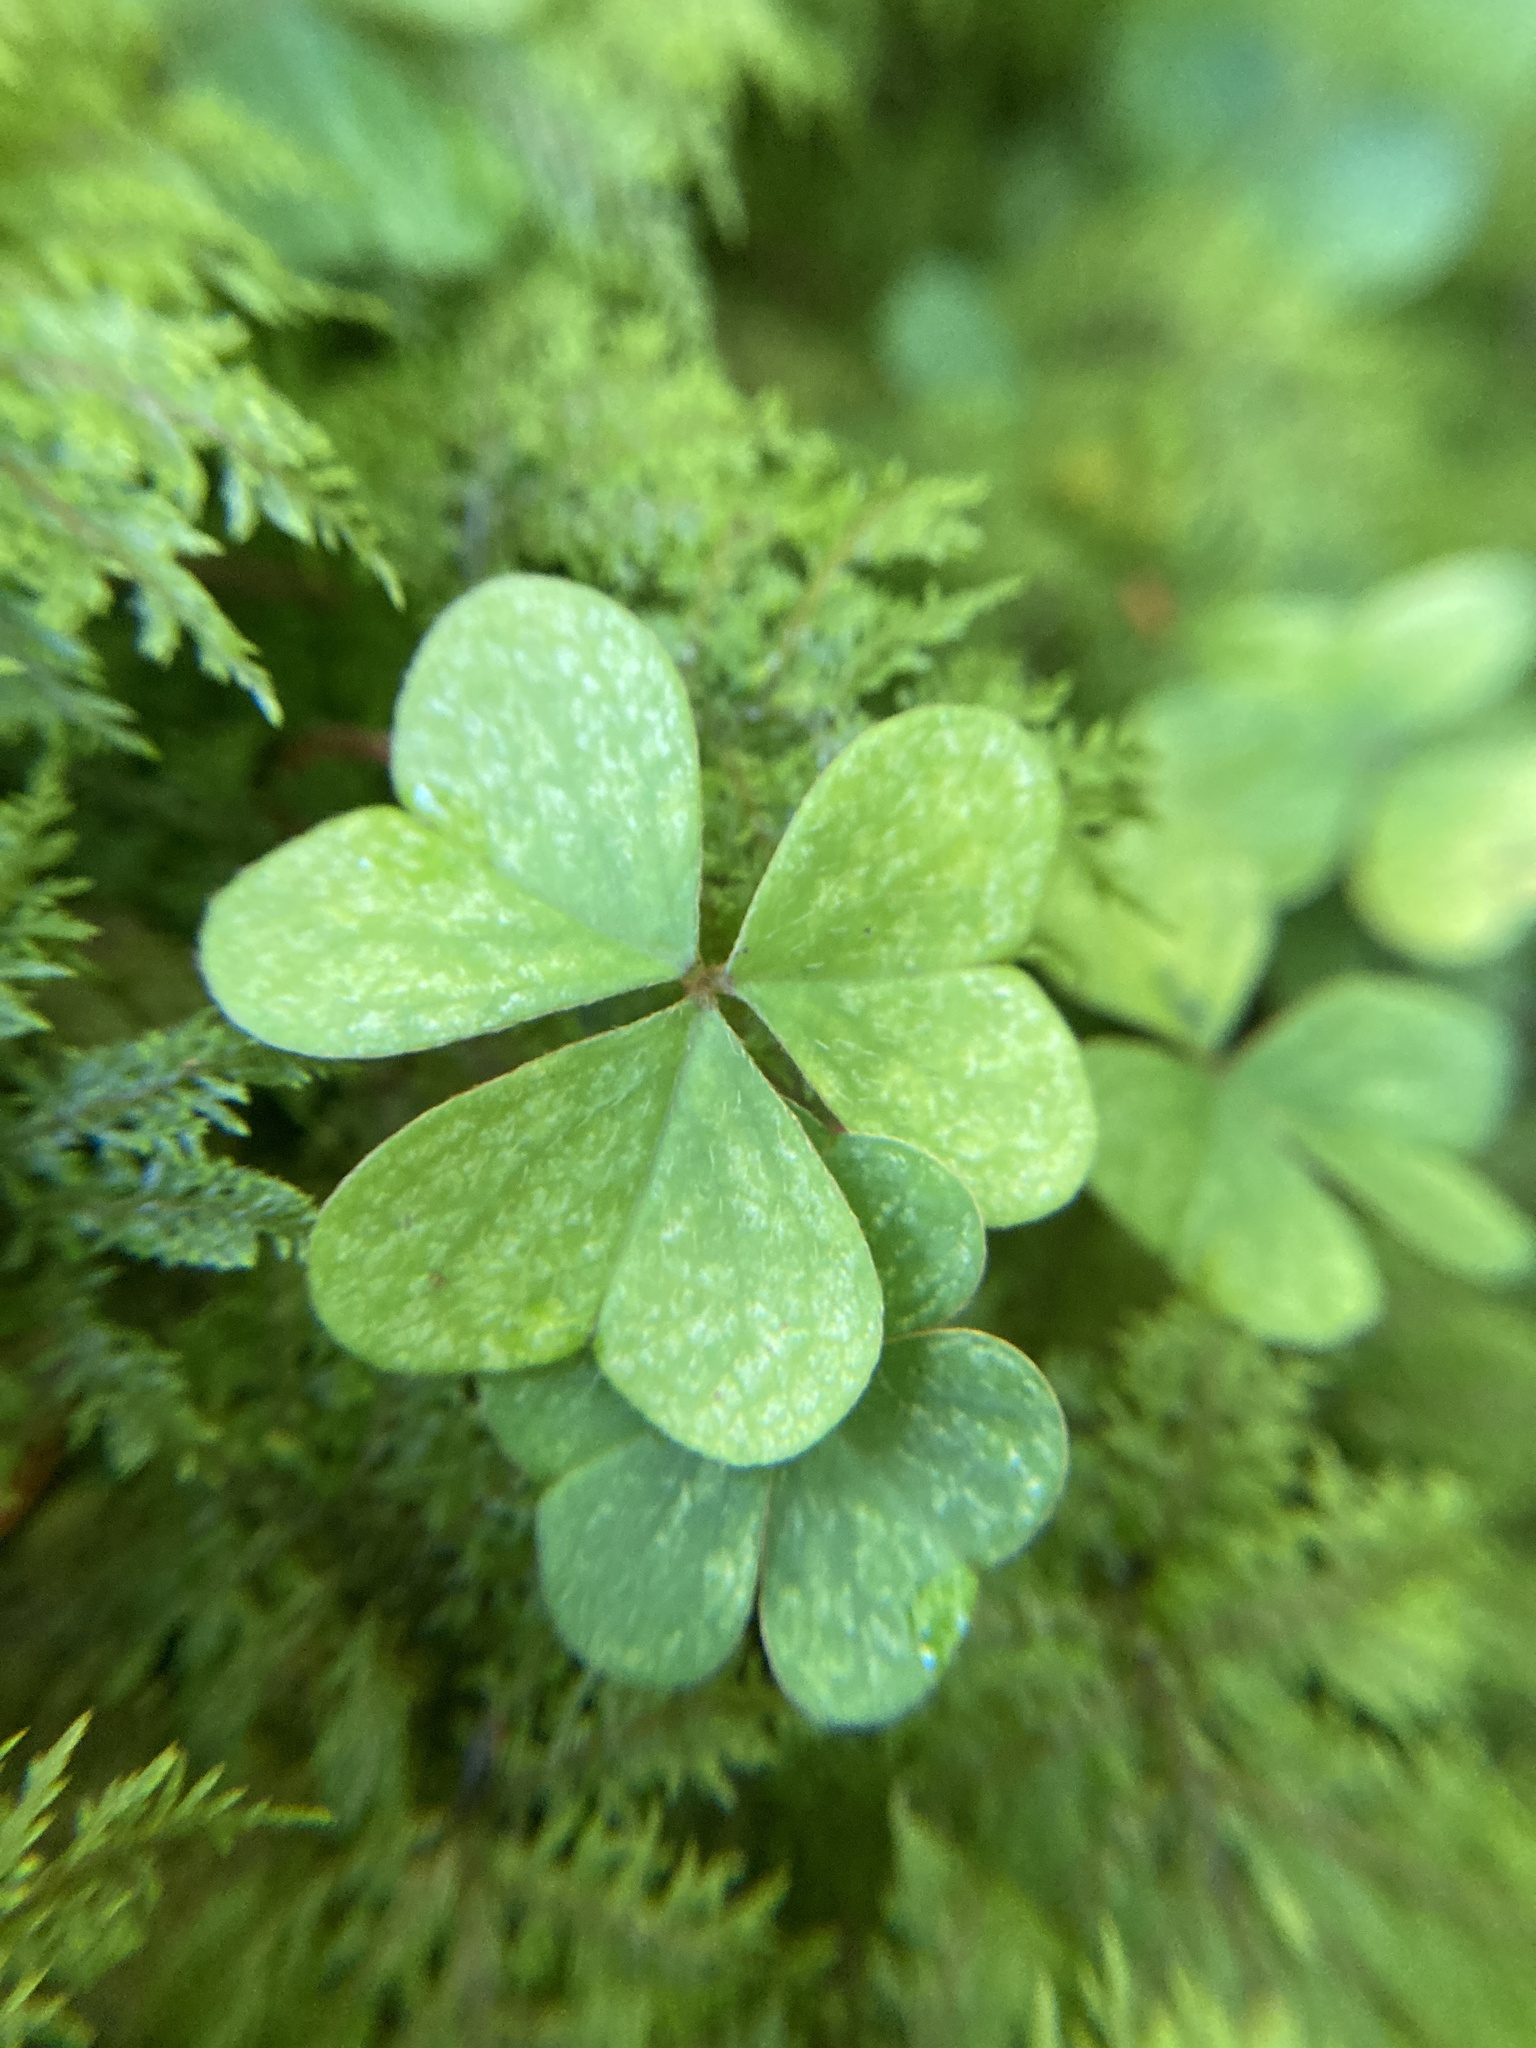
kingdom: Plantae
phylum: Tracheophyta
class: Magnoliopsida
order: Oxalidales
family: Oxalidaceae
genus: Oxalis
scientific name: Oxalis montana
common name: American wood-sorrel
